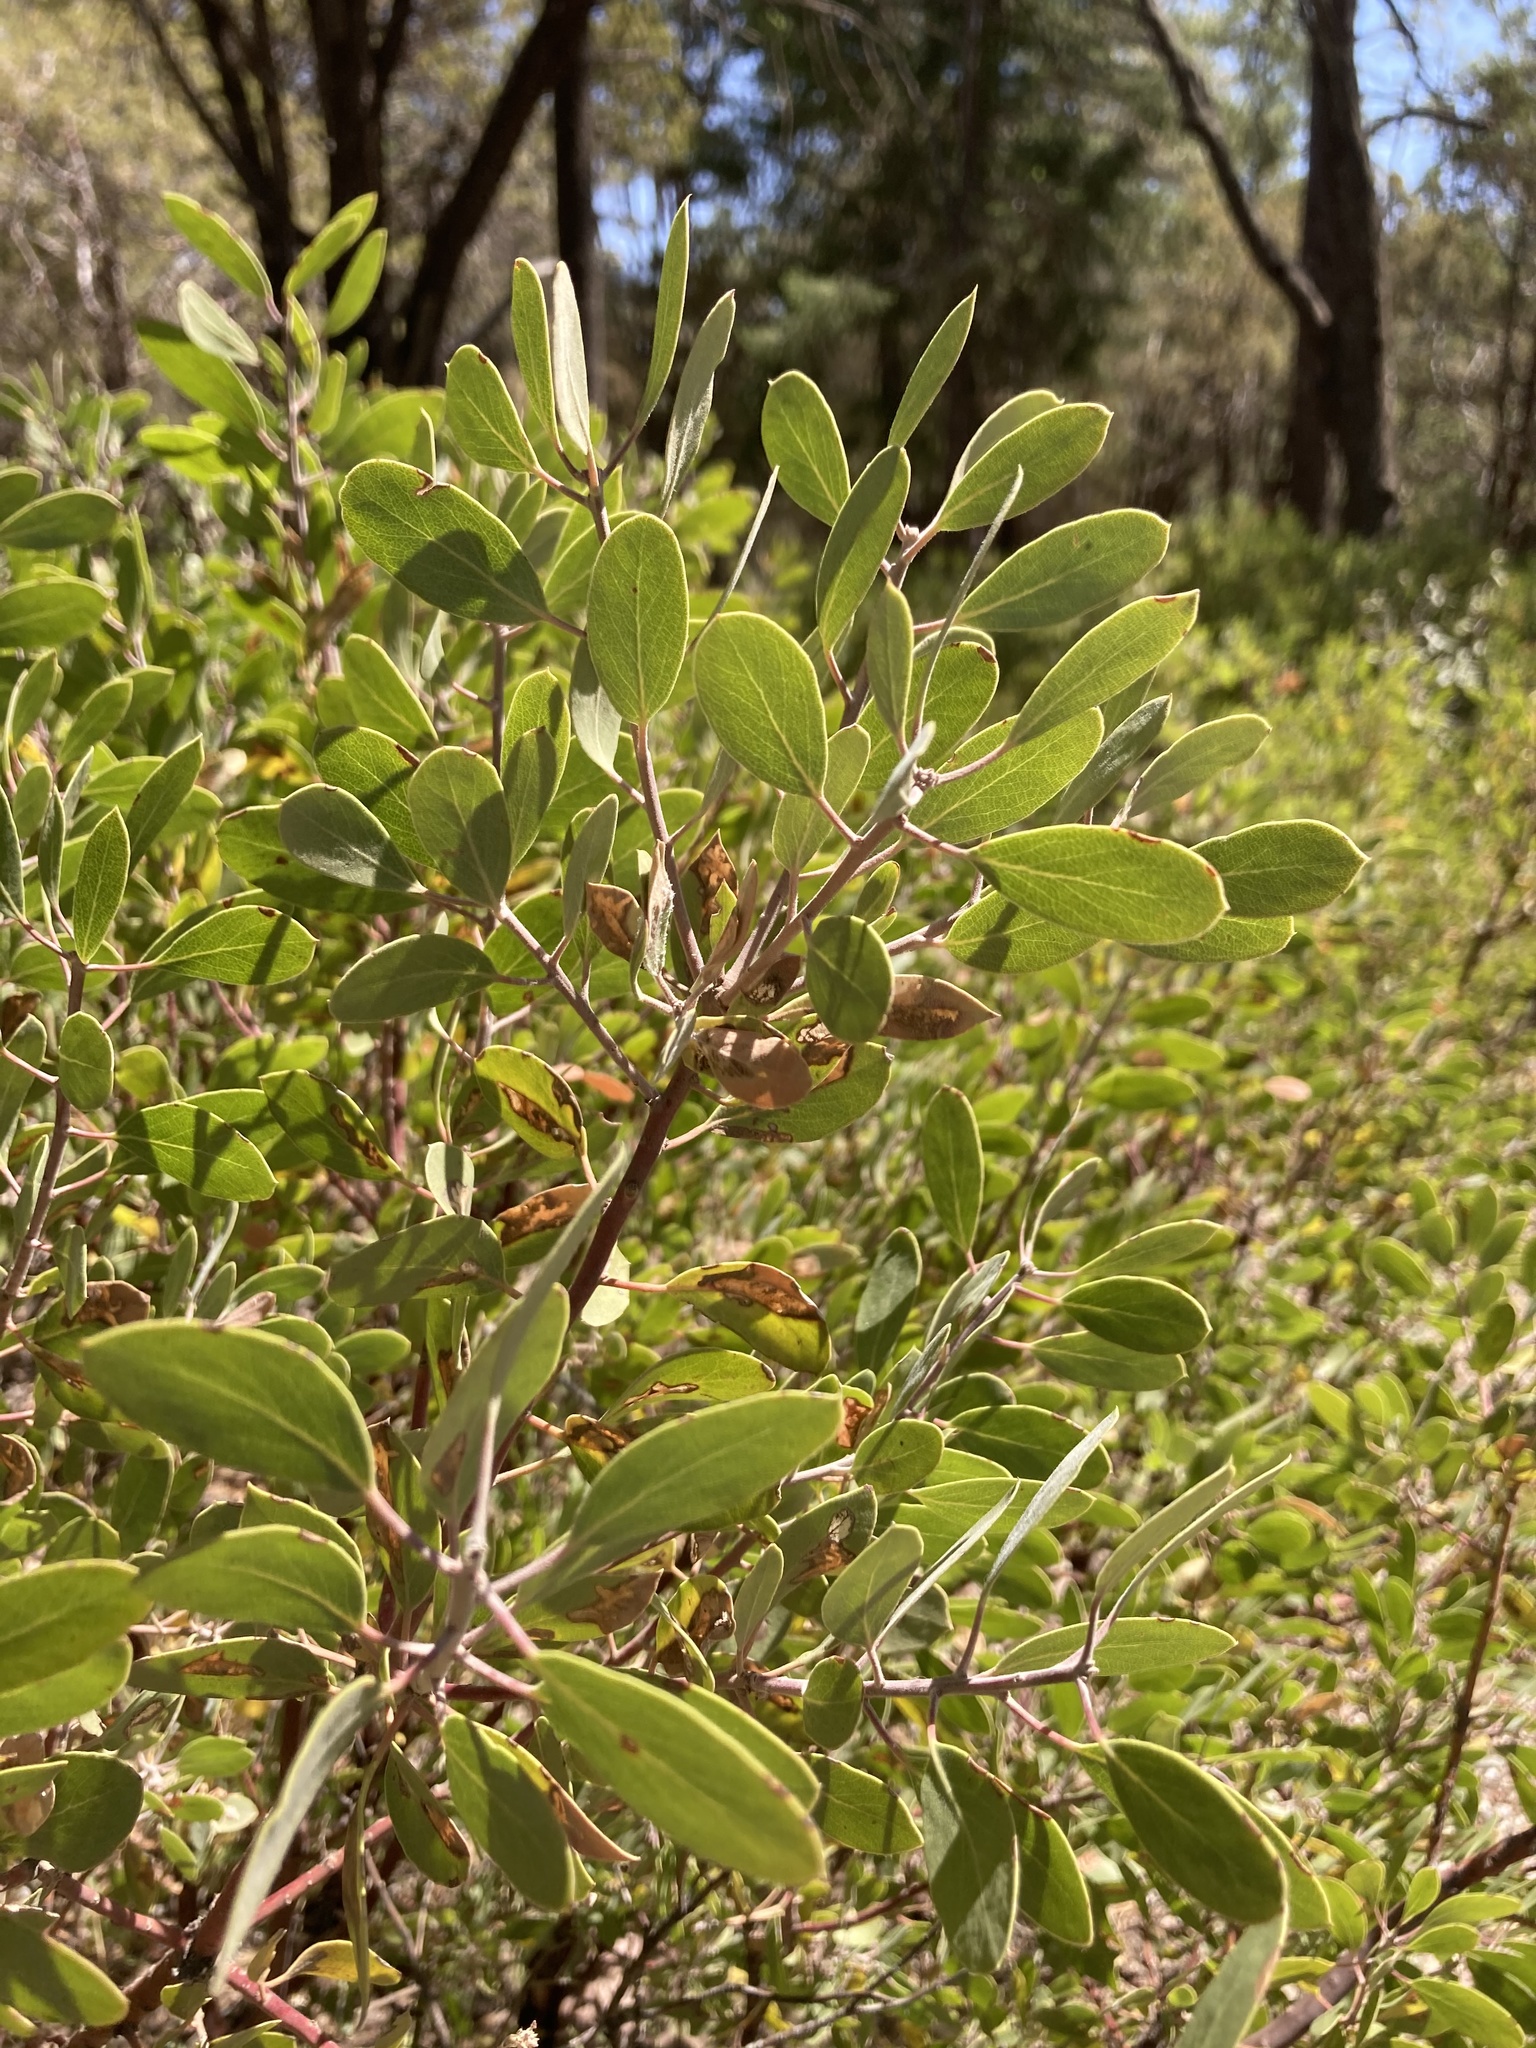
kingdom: Plantae
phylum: Tracheophyta
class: Magnoliopsida
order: Ericales
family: Ericaceae
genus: Arctostaphylos
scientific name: Arctostaphylos pungens
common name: Mexican manzanita
